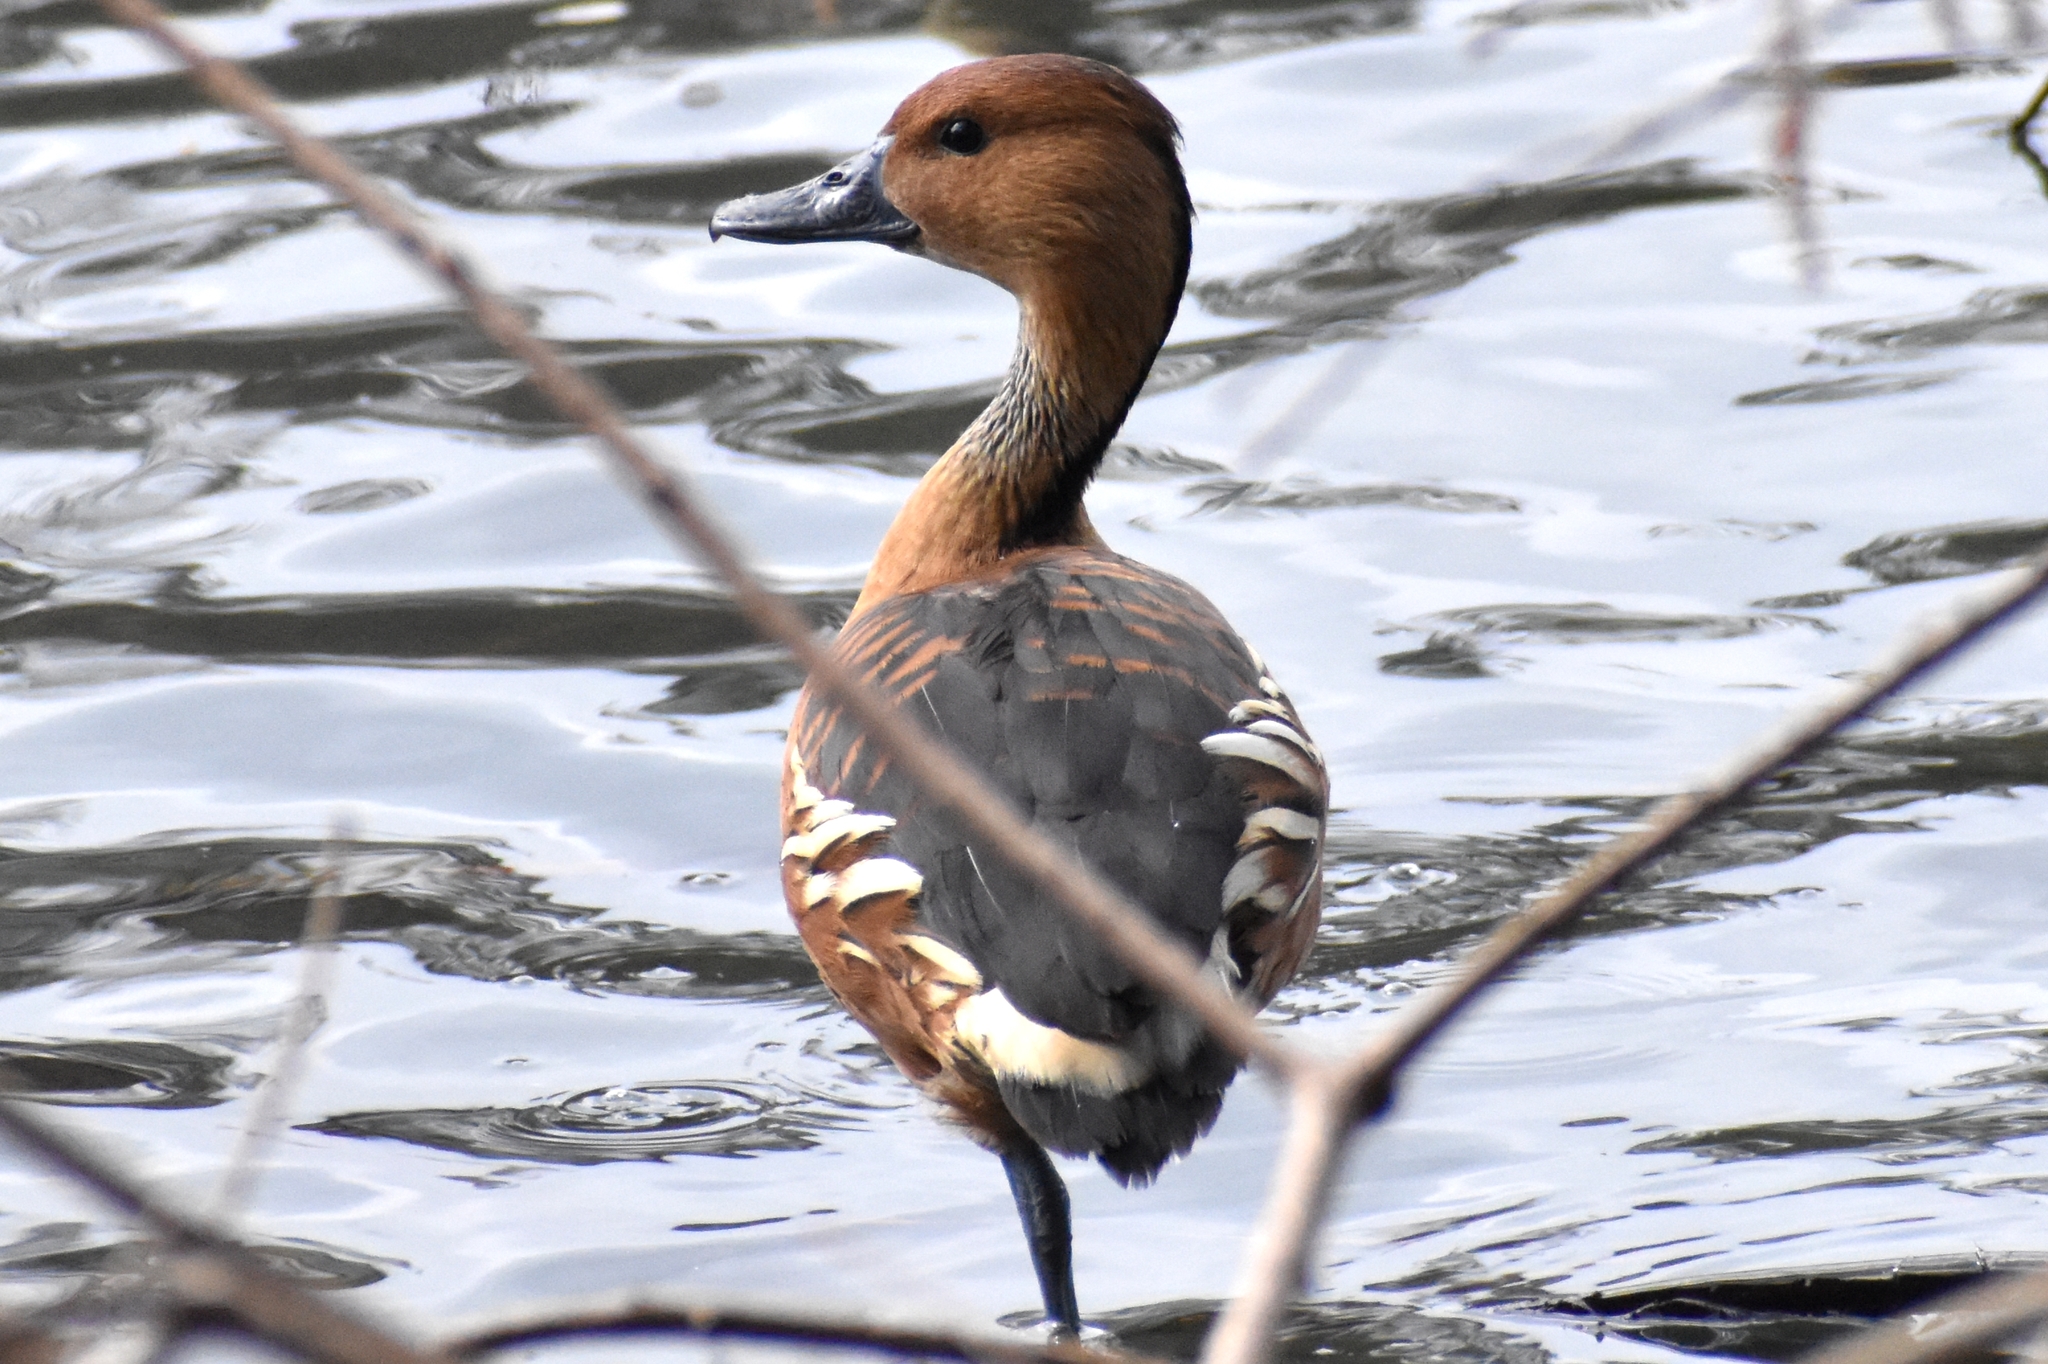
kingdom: Animalia
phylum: Chordata
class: Aves
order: Anseriformes
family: Anatidae
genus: Dendrocygna
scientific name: Dendrocygna bicolor
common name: Fulvous whistling duck
